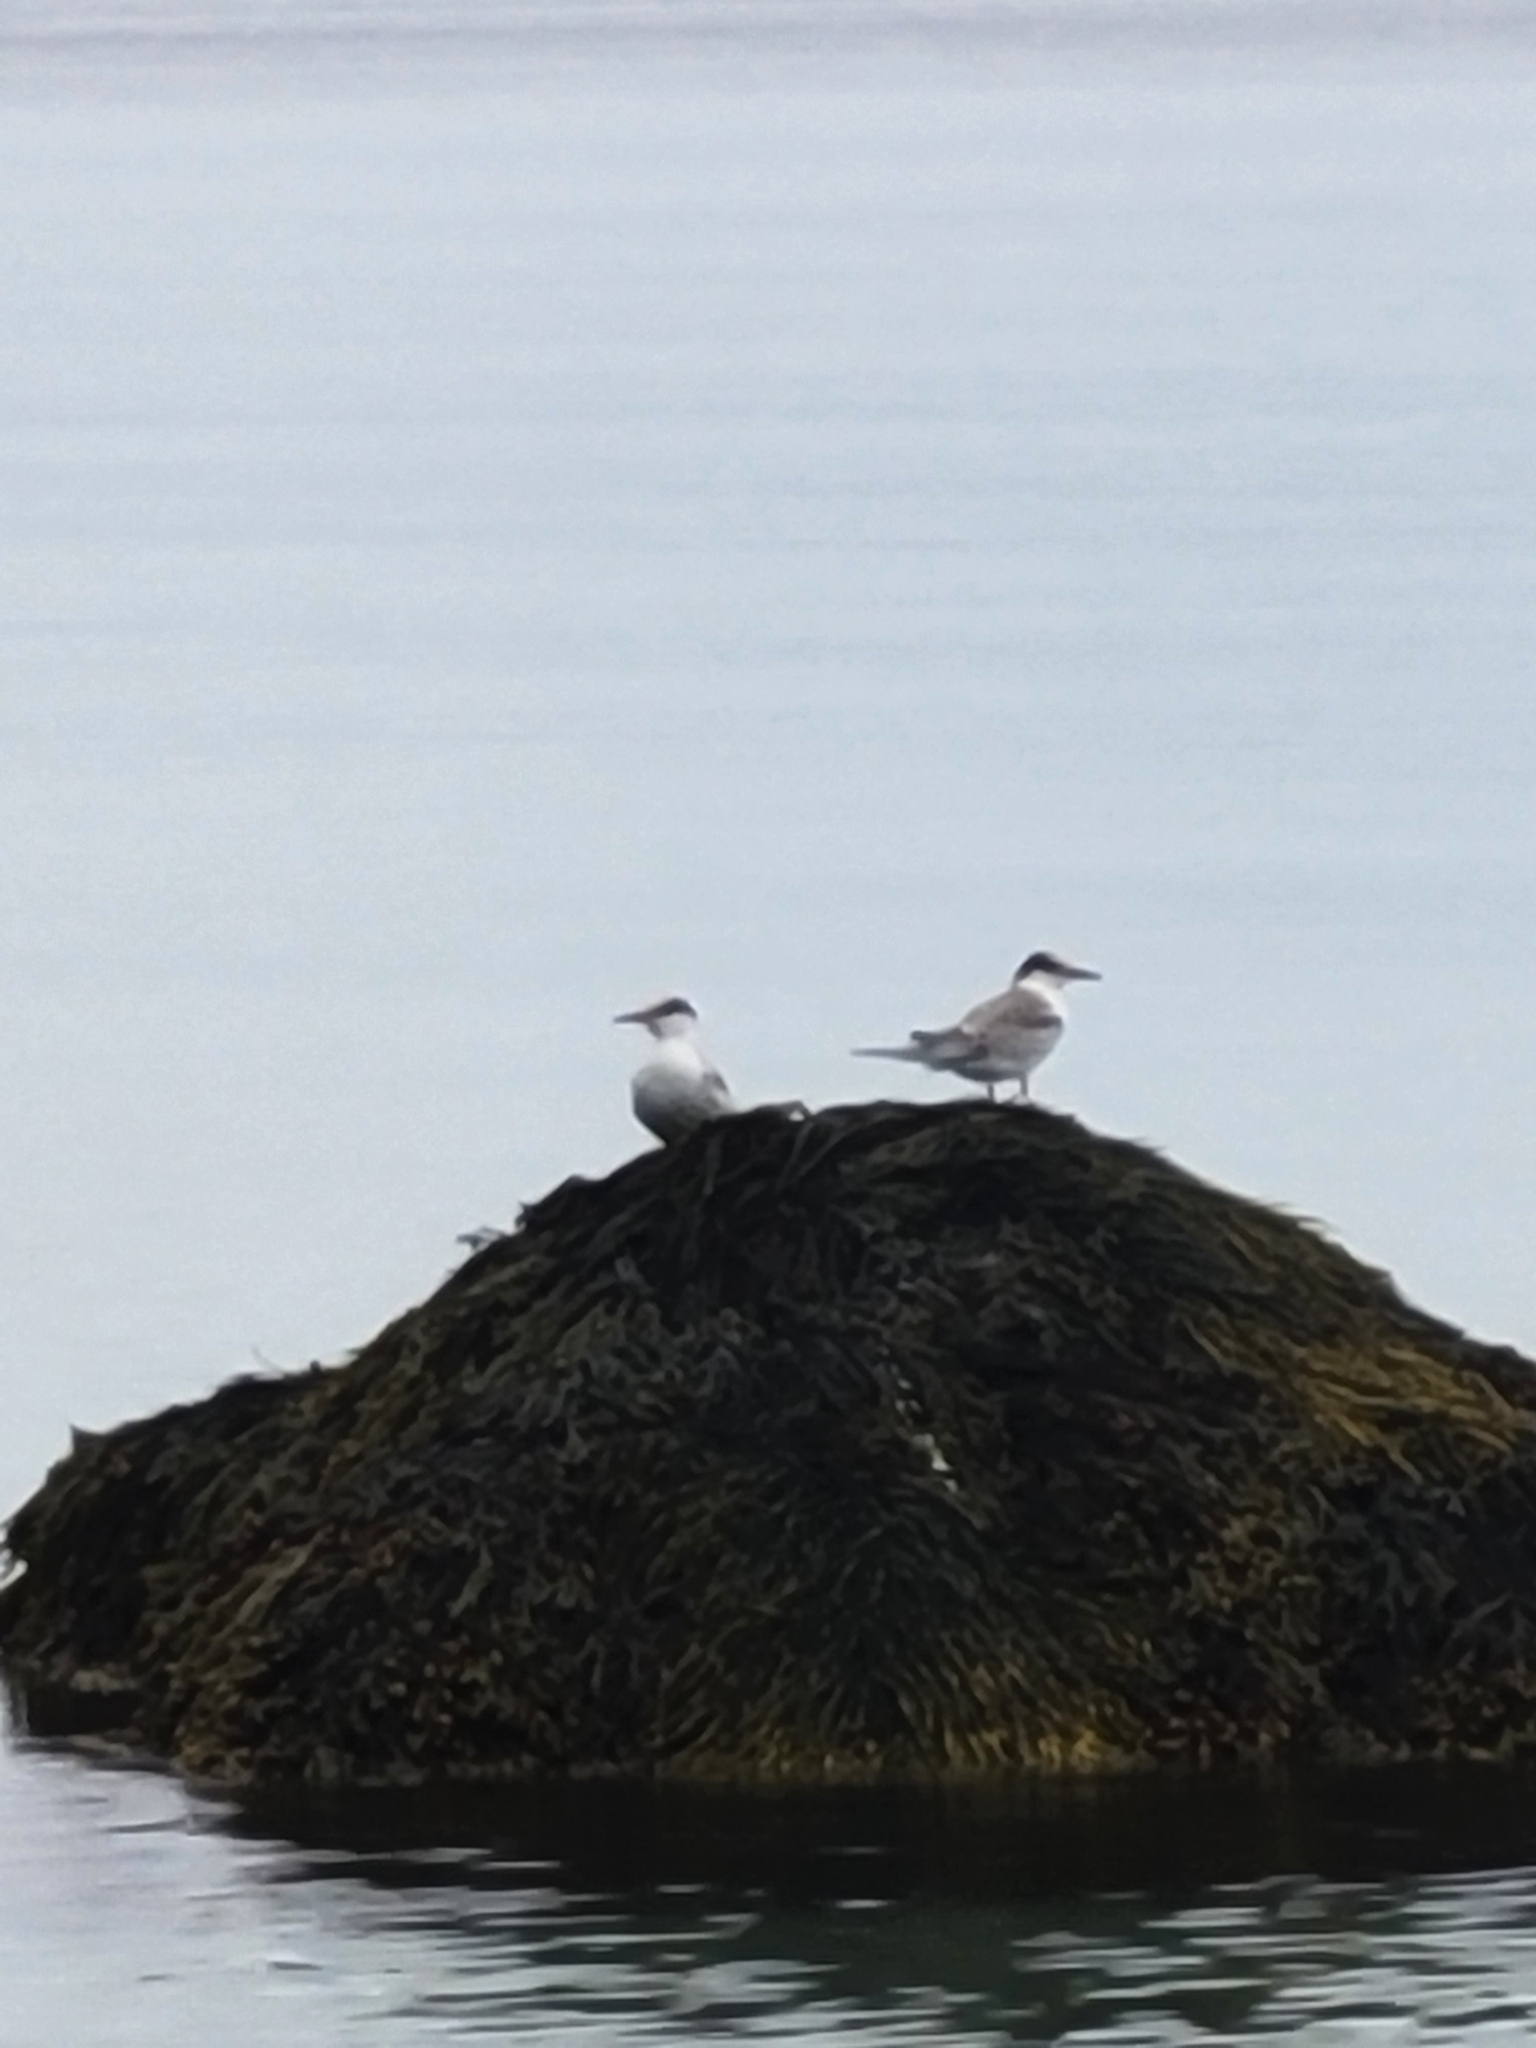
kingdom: Animalia
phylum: Chordata
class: Aves
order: Charadriiformes
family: Laridae
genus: Sterna
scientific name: Sterna hirundo
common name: Common tern
